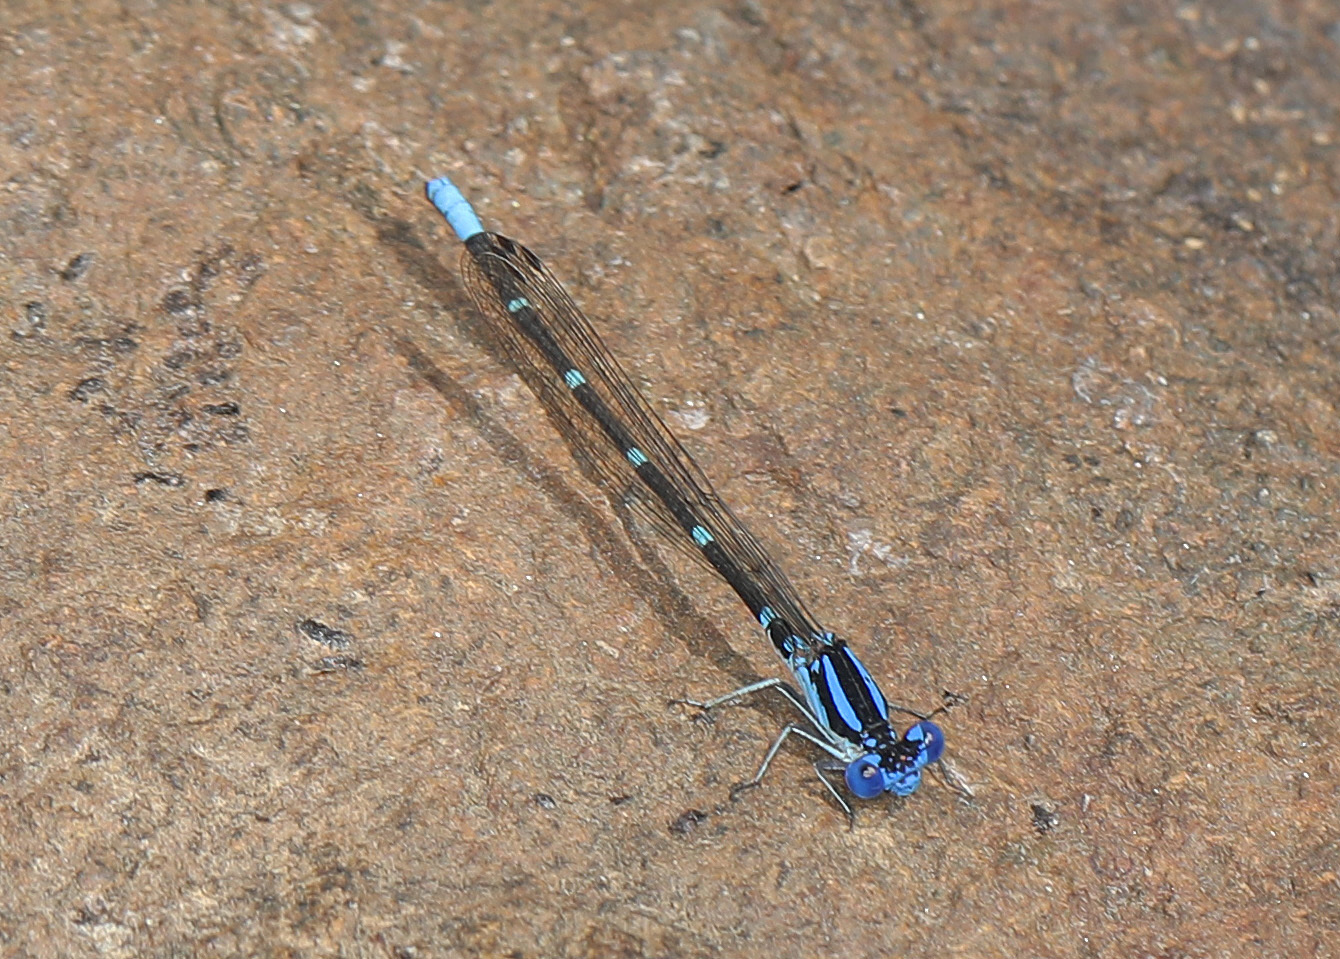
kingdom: Animalia
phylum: Arthropoda
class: Insecta
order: Odonata
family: Coenagrionidae
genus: Argia
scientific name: Argia sedula
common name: Blue-ringed dancer
